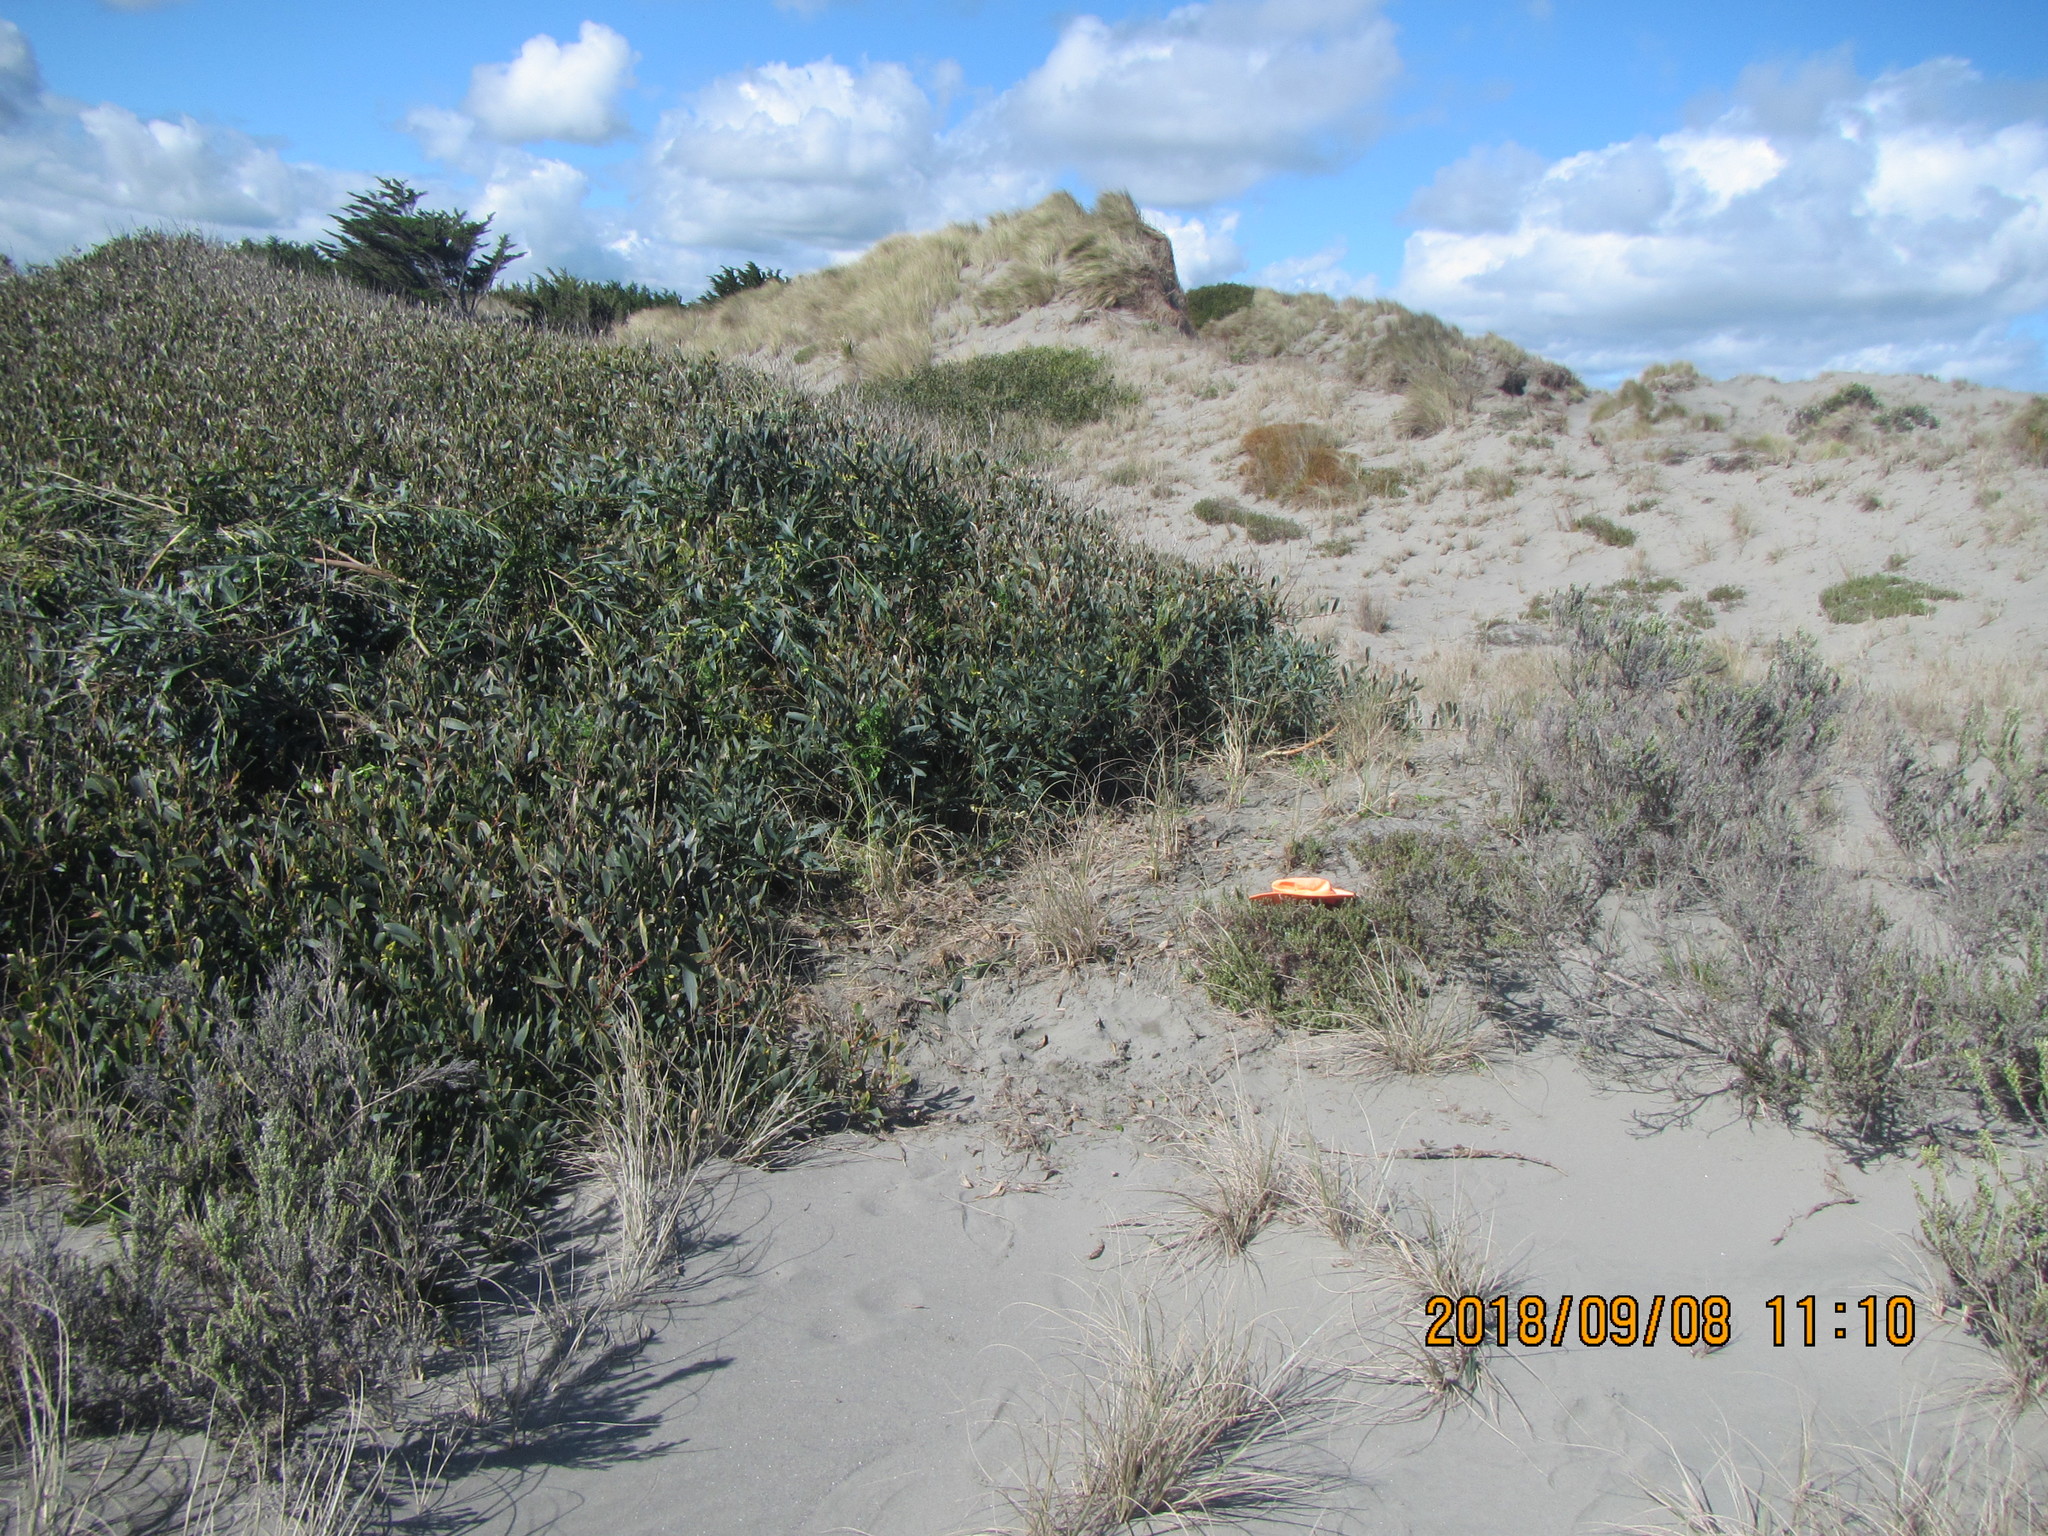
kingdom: Plantae
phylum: Tracheophyta
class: Magnoliopsida
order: Fabales
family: Fabaceae
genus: Acacia
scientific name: Acacia longifolia
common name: Sydney golden wattle
